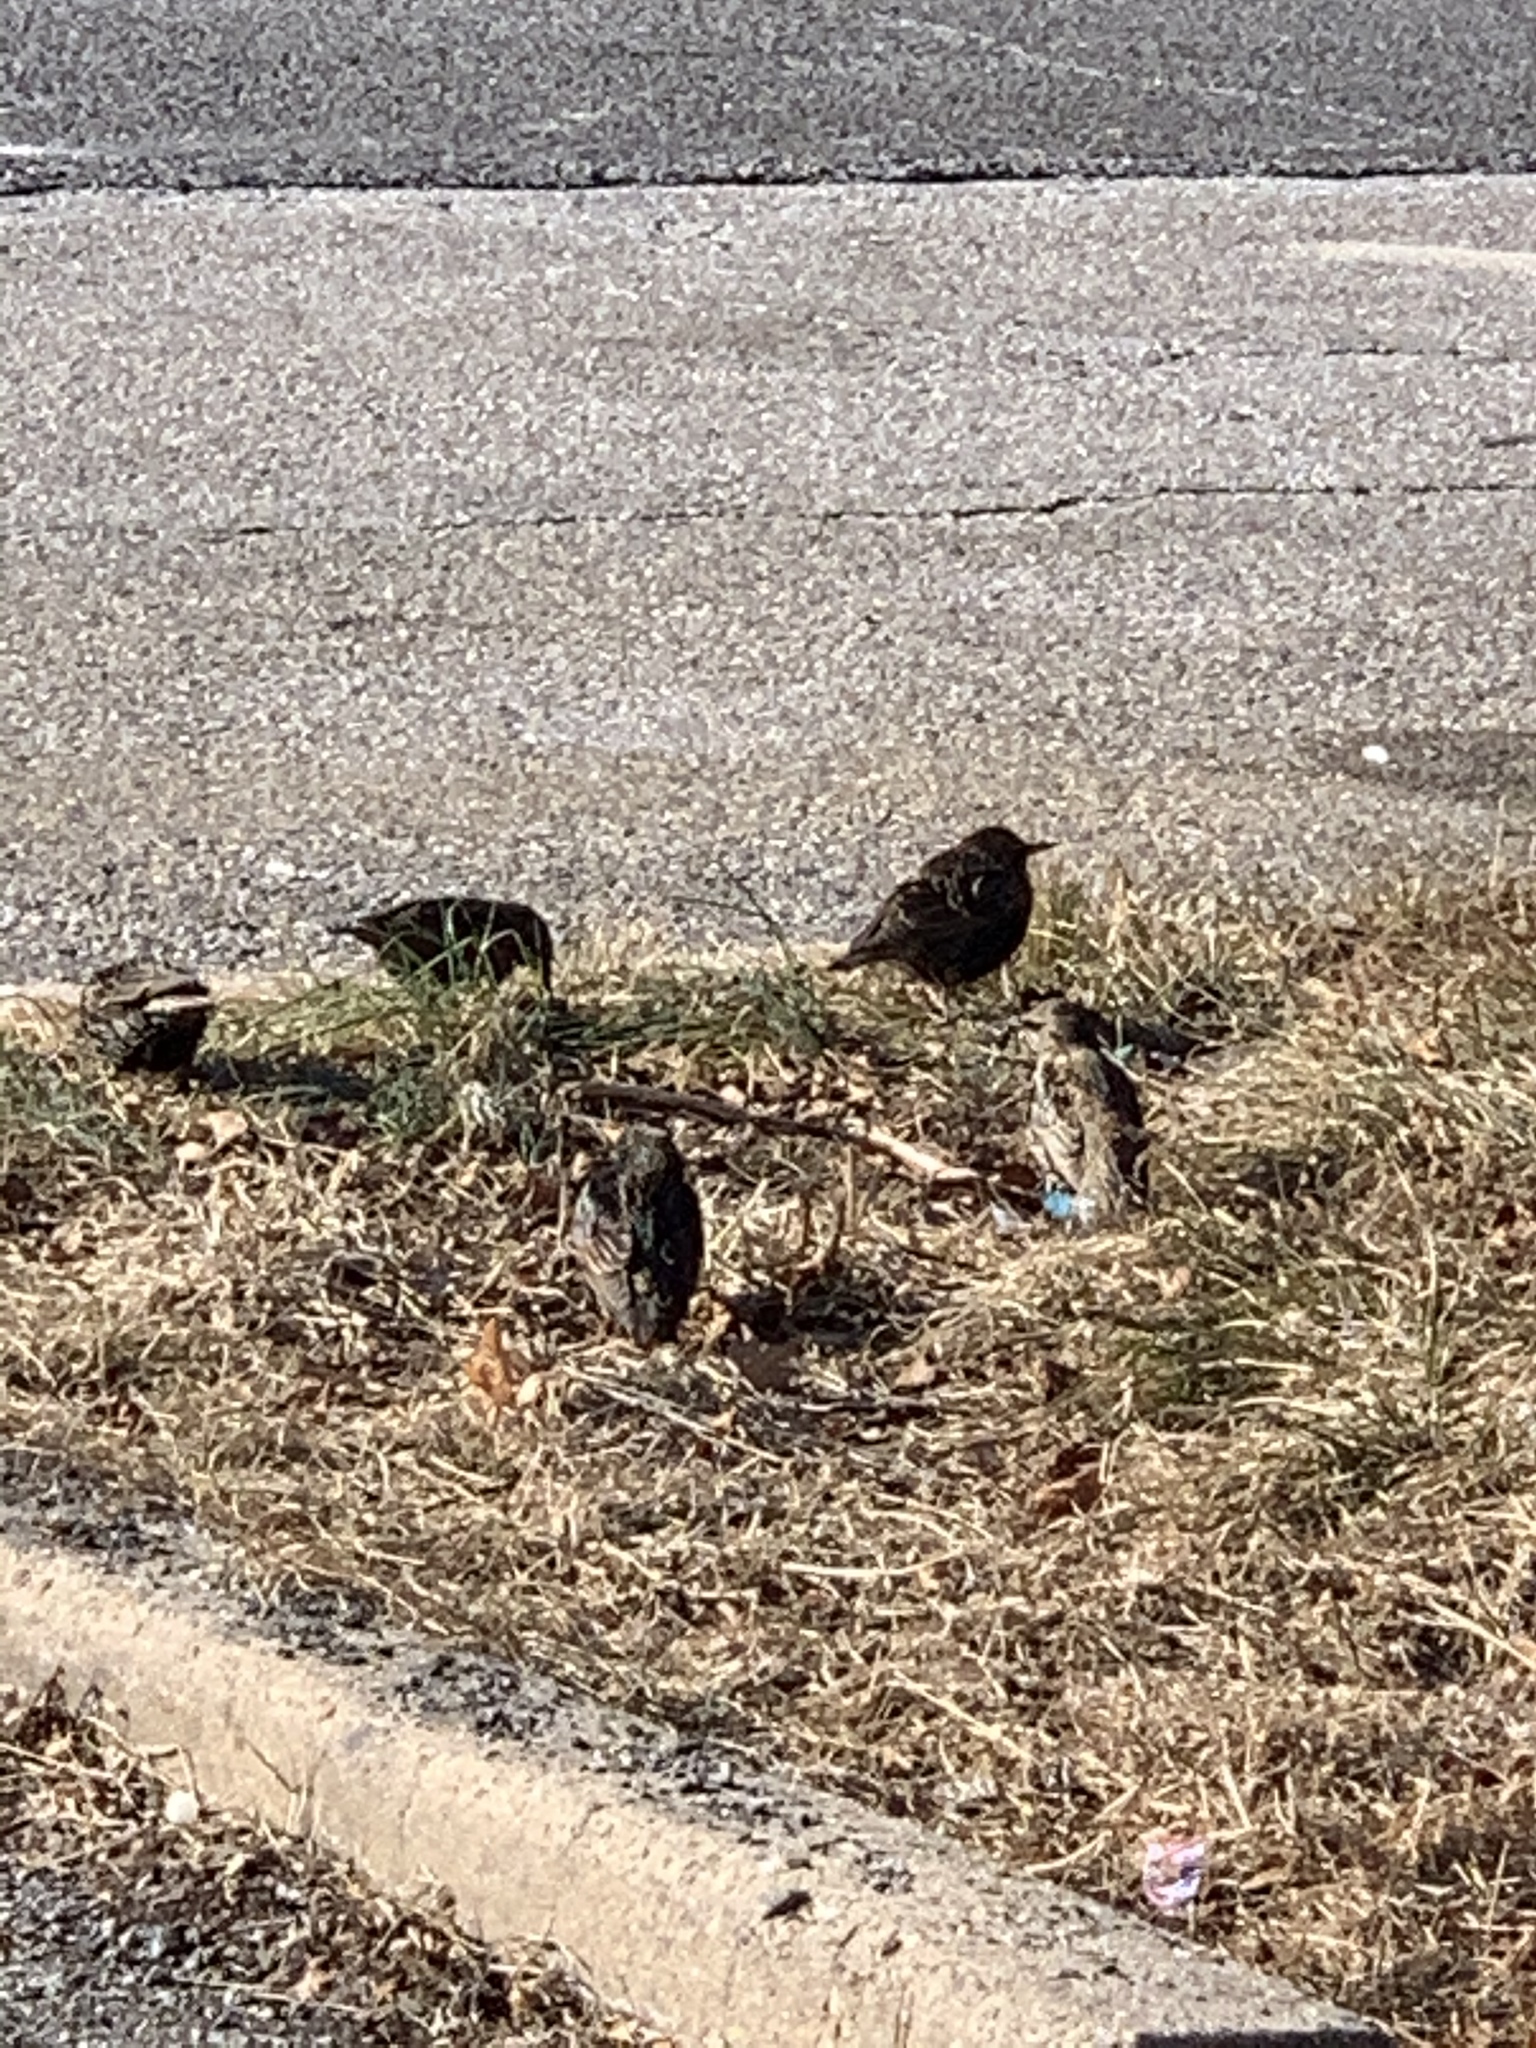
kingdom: Animalia
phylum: Chordata
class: Aves
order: Passeriformes
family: Sturnidae
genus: Sturnus
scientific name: Sturnus vulgaris
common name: Common starling
